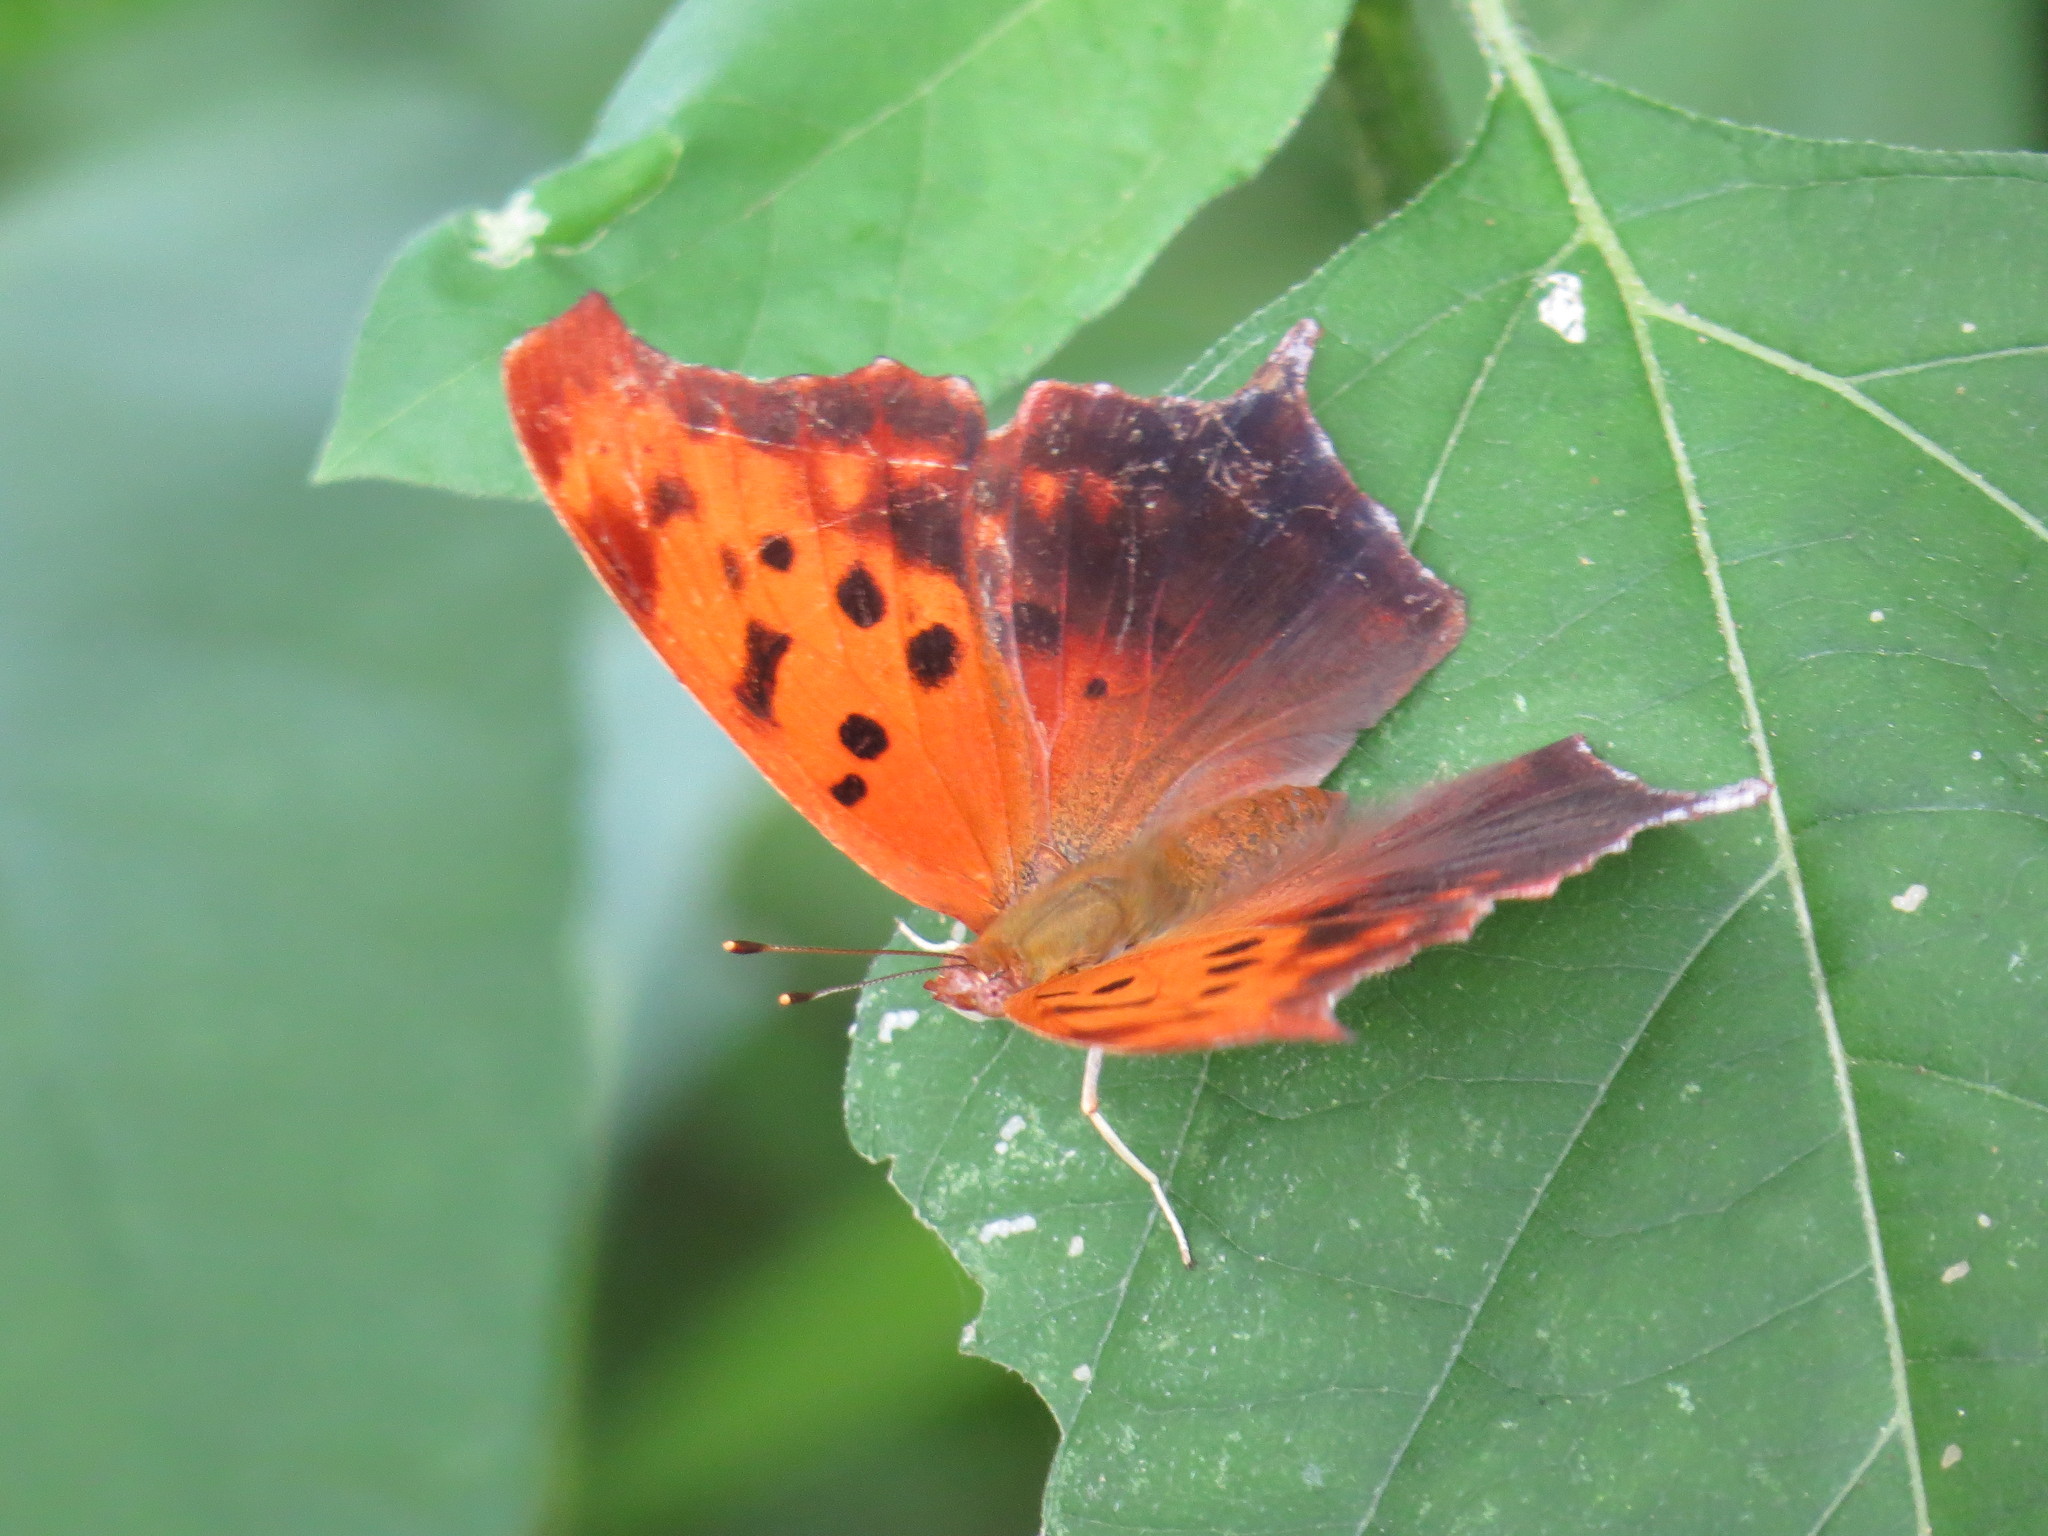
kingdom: Animalia
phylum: Arthropoda
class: Insecta
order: Lepidoptera
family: Nymphalidae
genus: Polygonia
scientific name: Polygonia interrogationis
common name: Question mark
